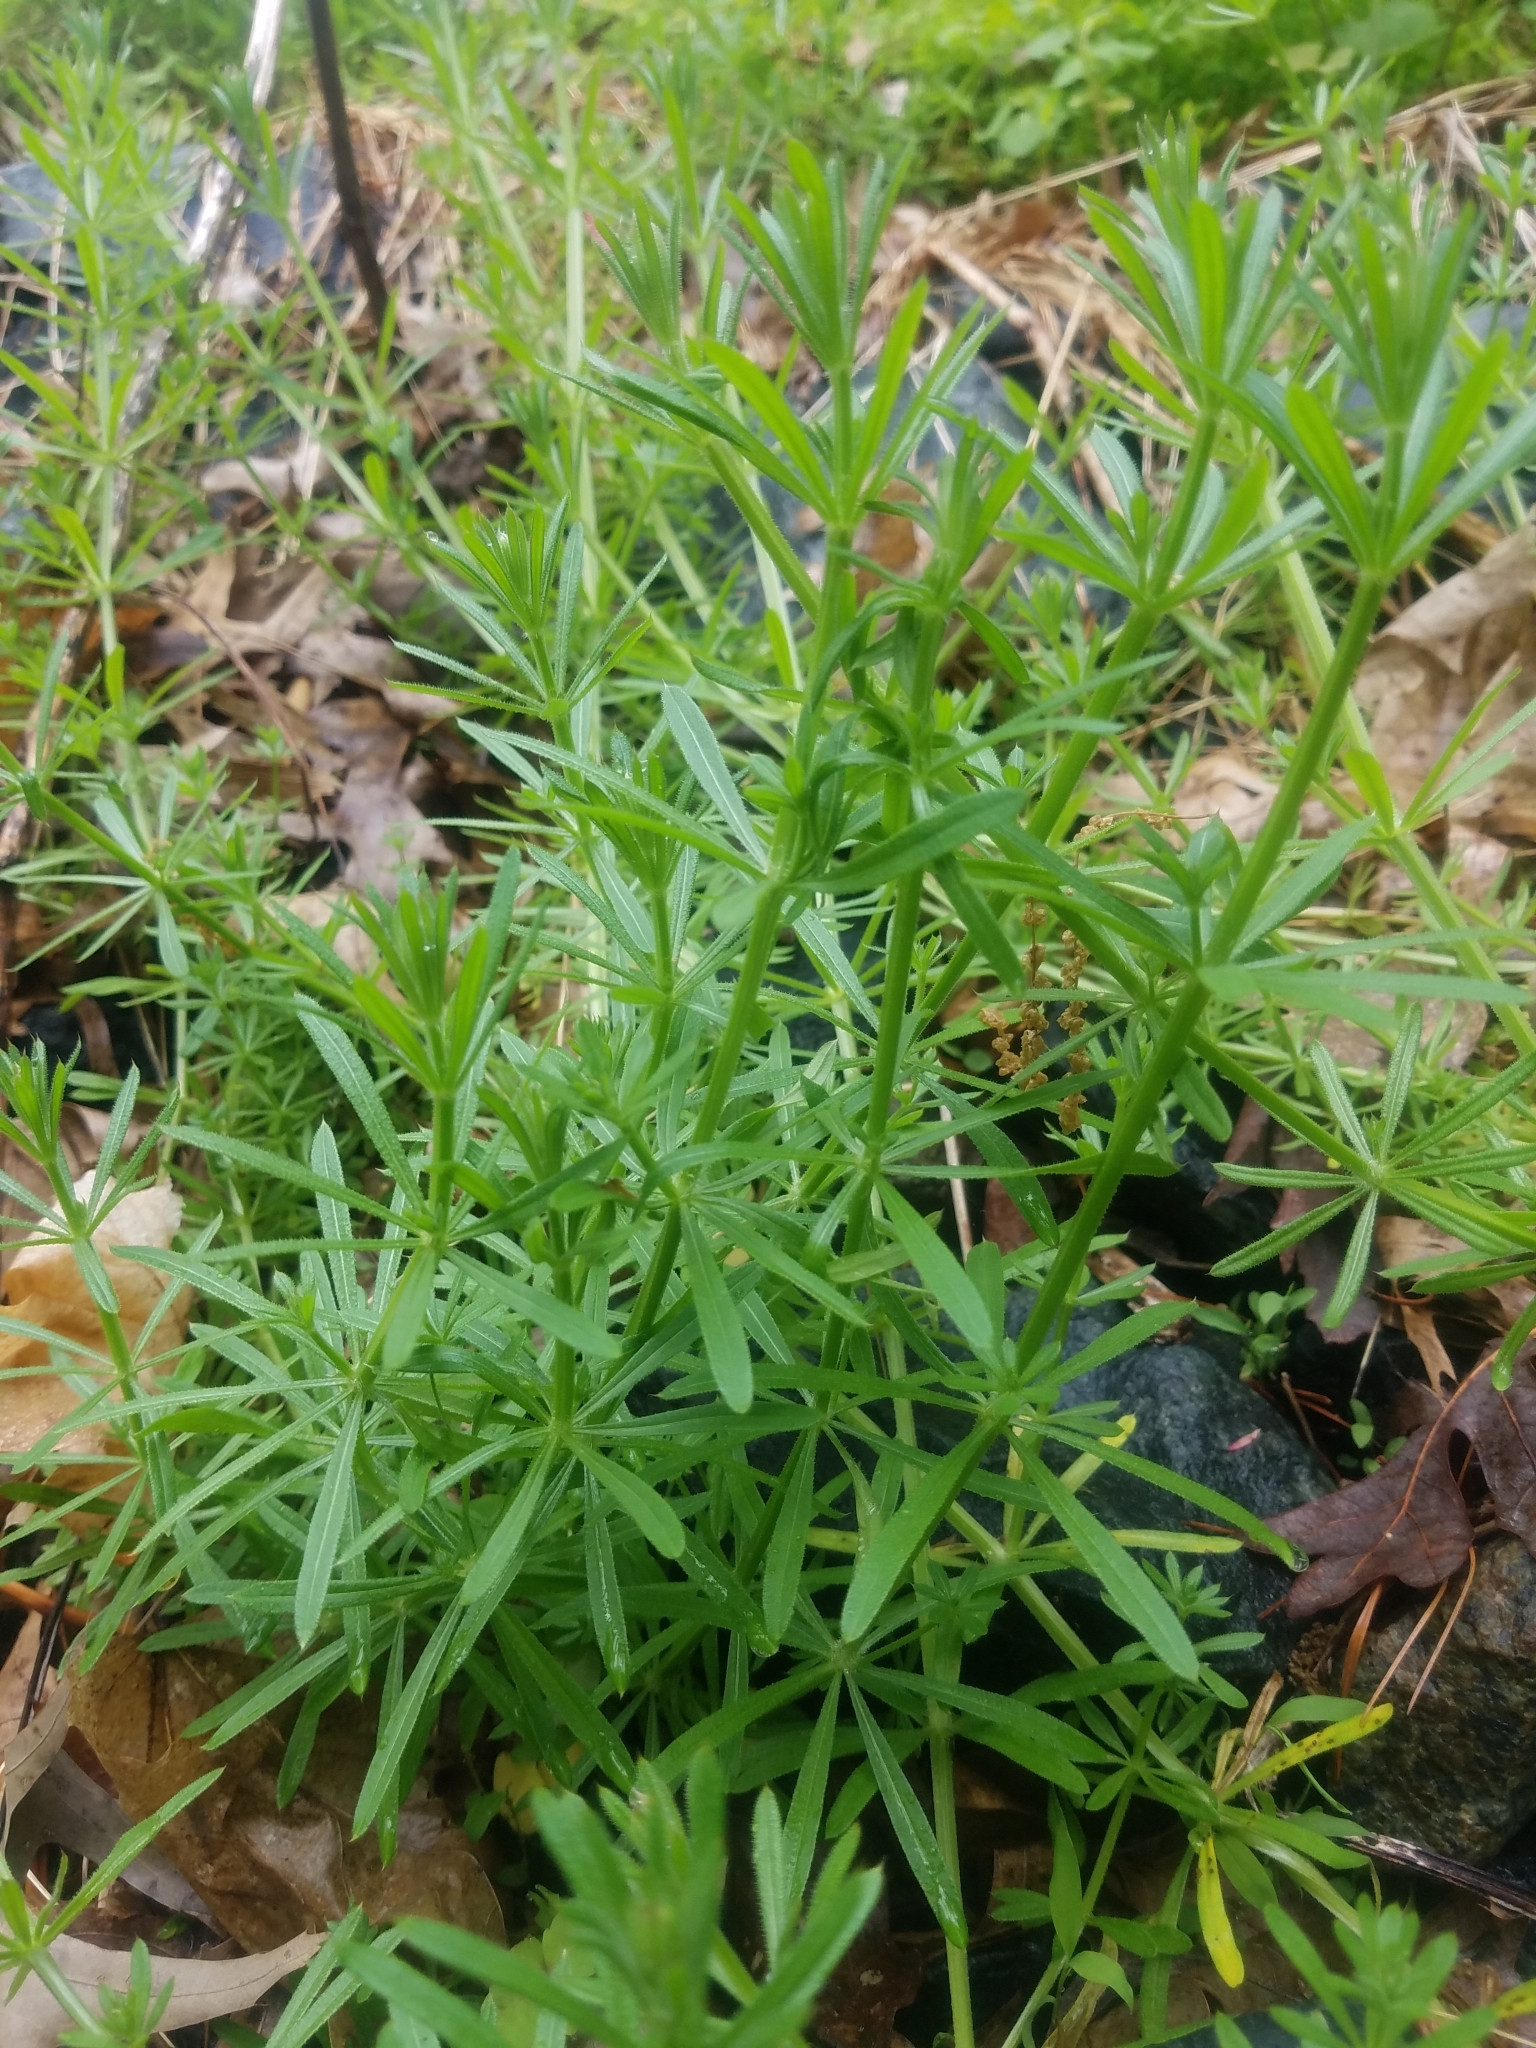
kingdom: Plantae
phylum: Tracheophyta
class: Magnoliopsida
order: Gentianales
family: Rubiaceae
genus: Galium
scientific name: Galium aparine
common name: Cleavers
